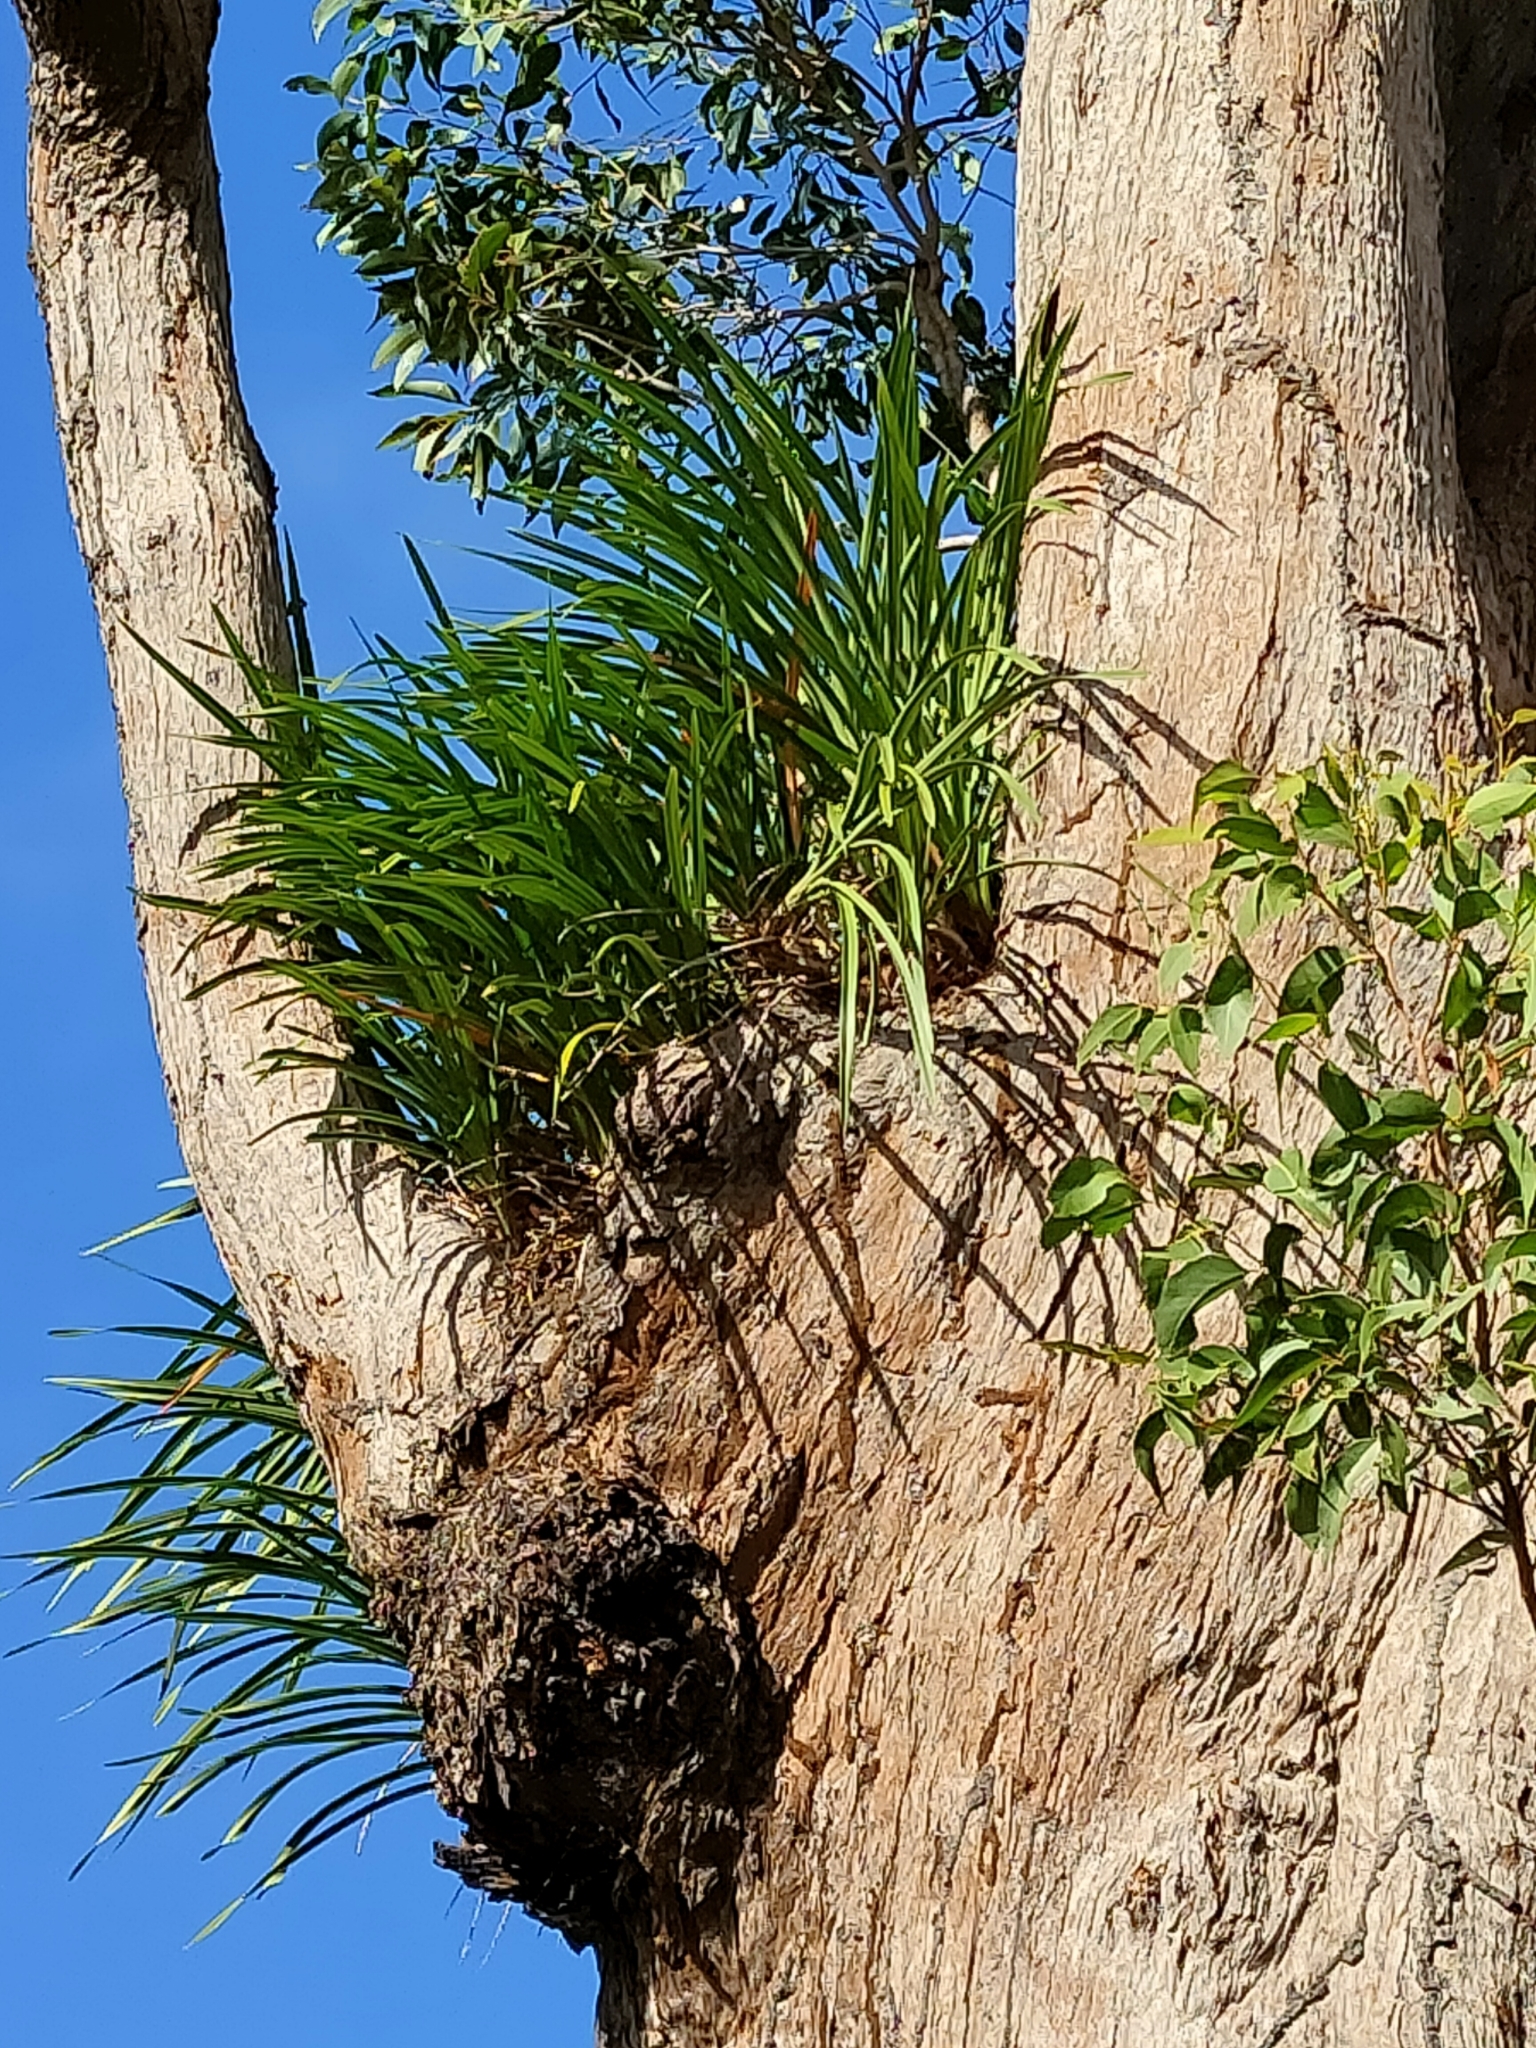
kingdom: Plantae
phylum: Tracheophyta
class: Liliopsida
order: Asparagales
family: Orchidaceae
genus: Cymbidium
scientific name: Cymbidium suave
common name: Snake orchid
